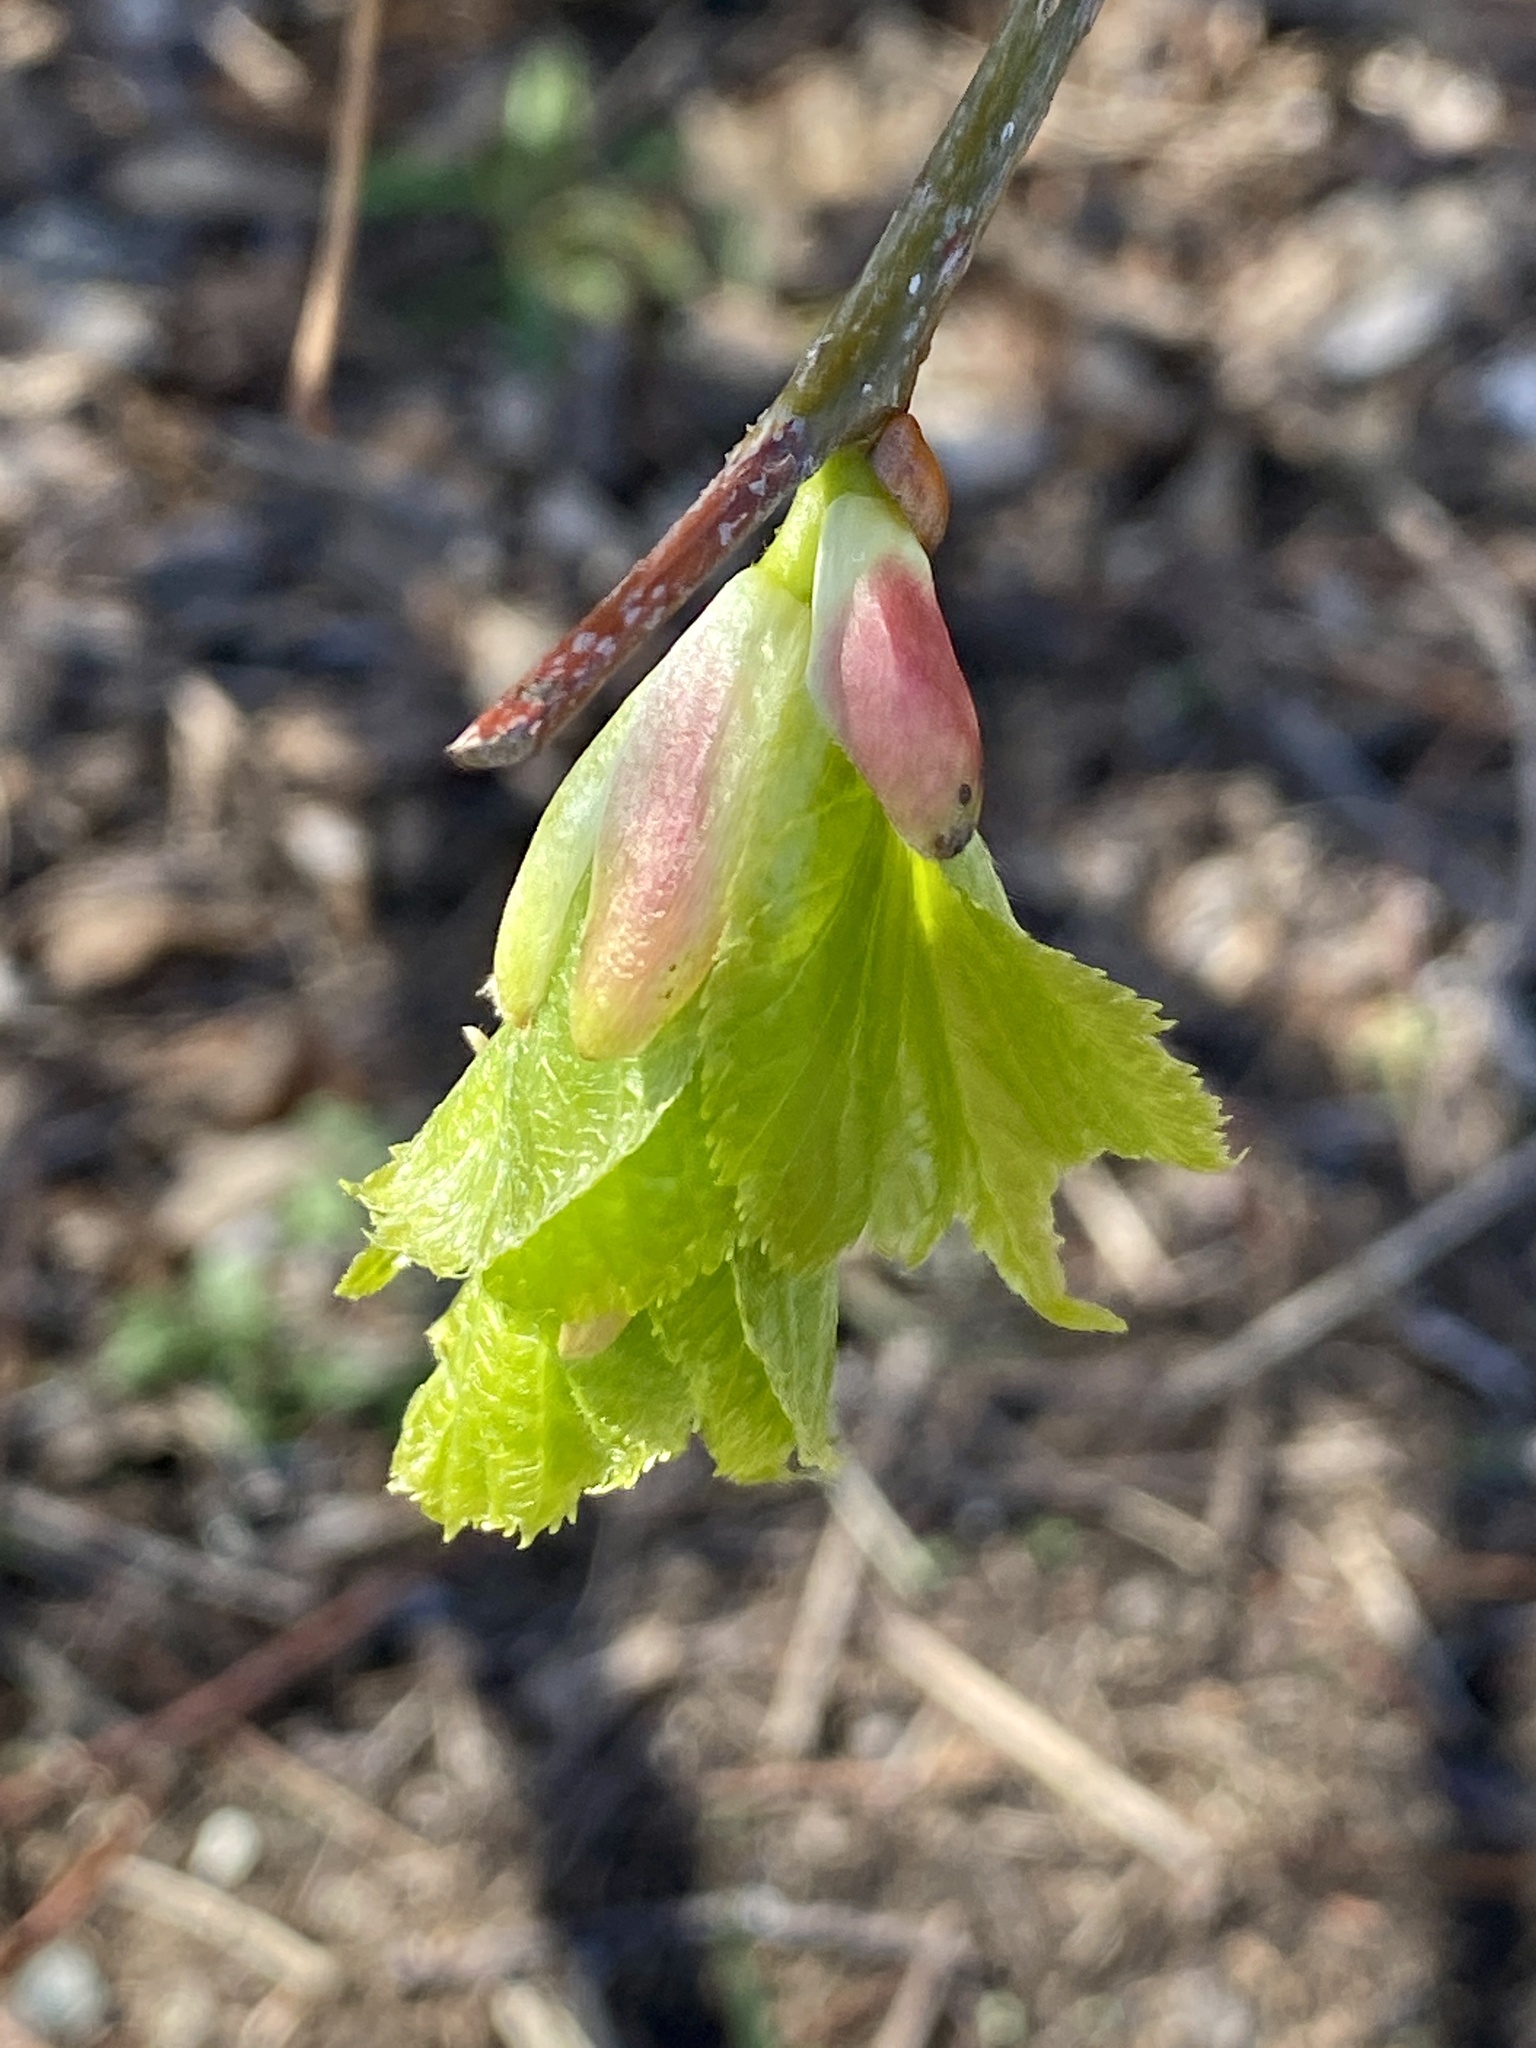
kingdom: Plantae
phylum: Tracheophyta
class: Magnoliopsida
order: Malvales
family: Malvaceae
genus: Tilia
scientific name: Tilia americana
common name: Basswood
